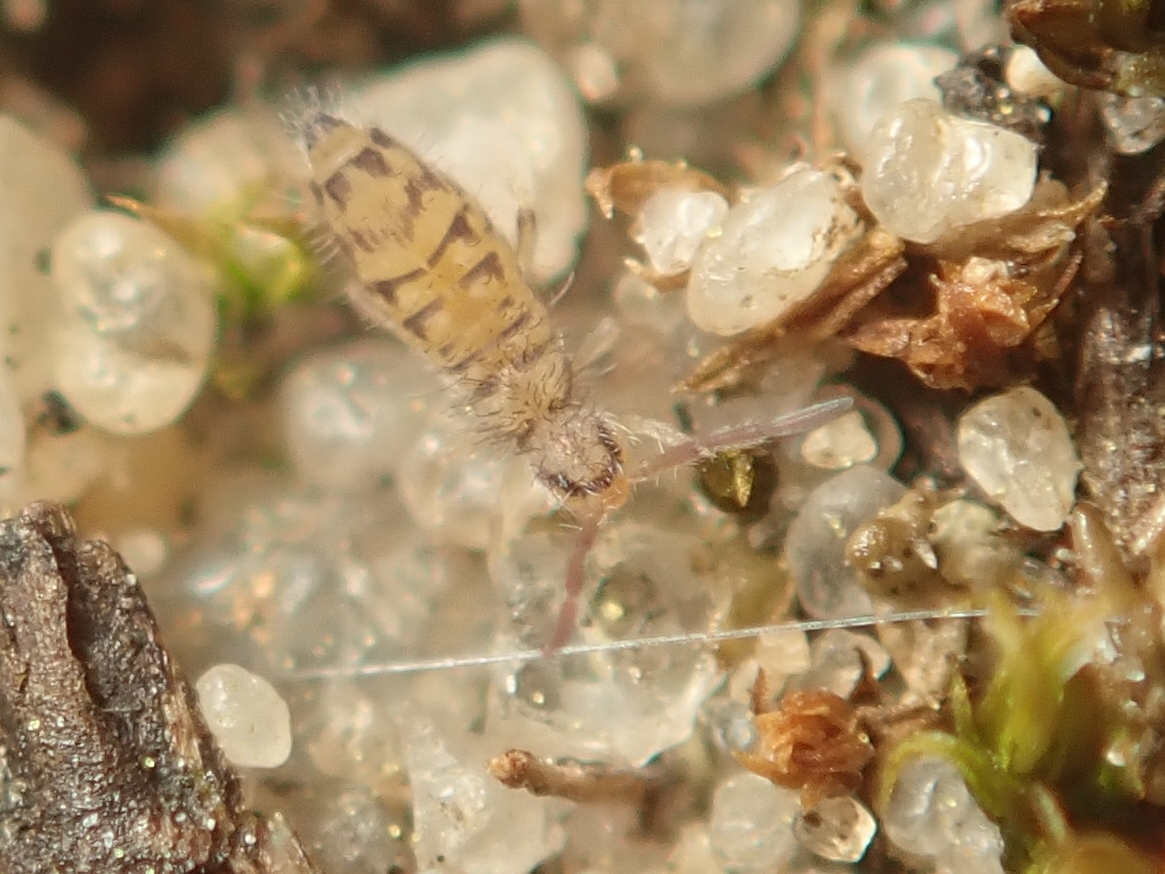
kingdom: Animalia
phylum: Arthropoda
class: Collembola
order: Entomobryomorpha
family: Entomobryidae
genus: Entomobrya
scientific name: Entomobrya multifasciata
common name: Springtail
